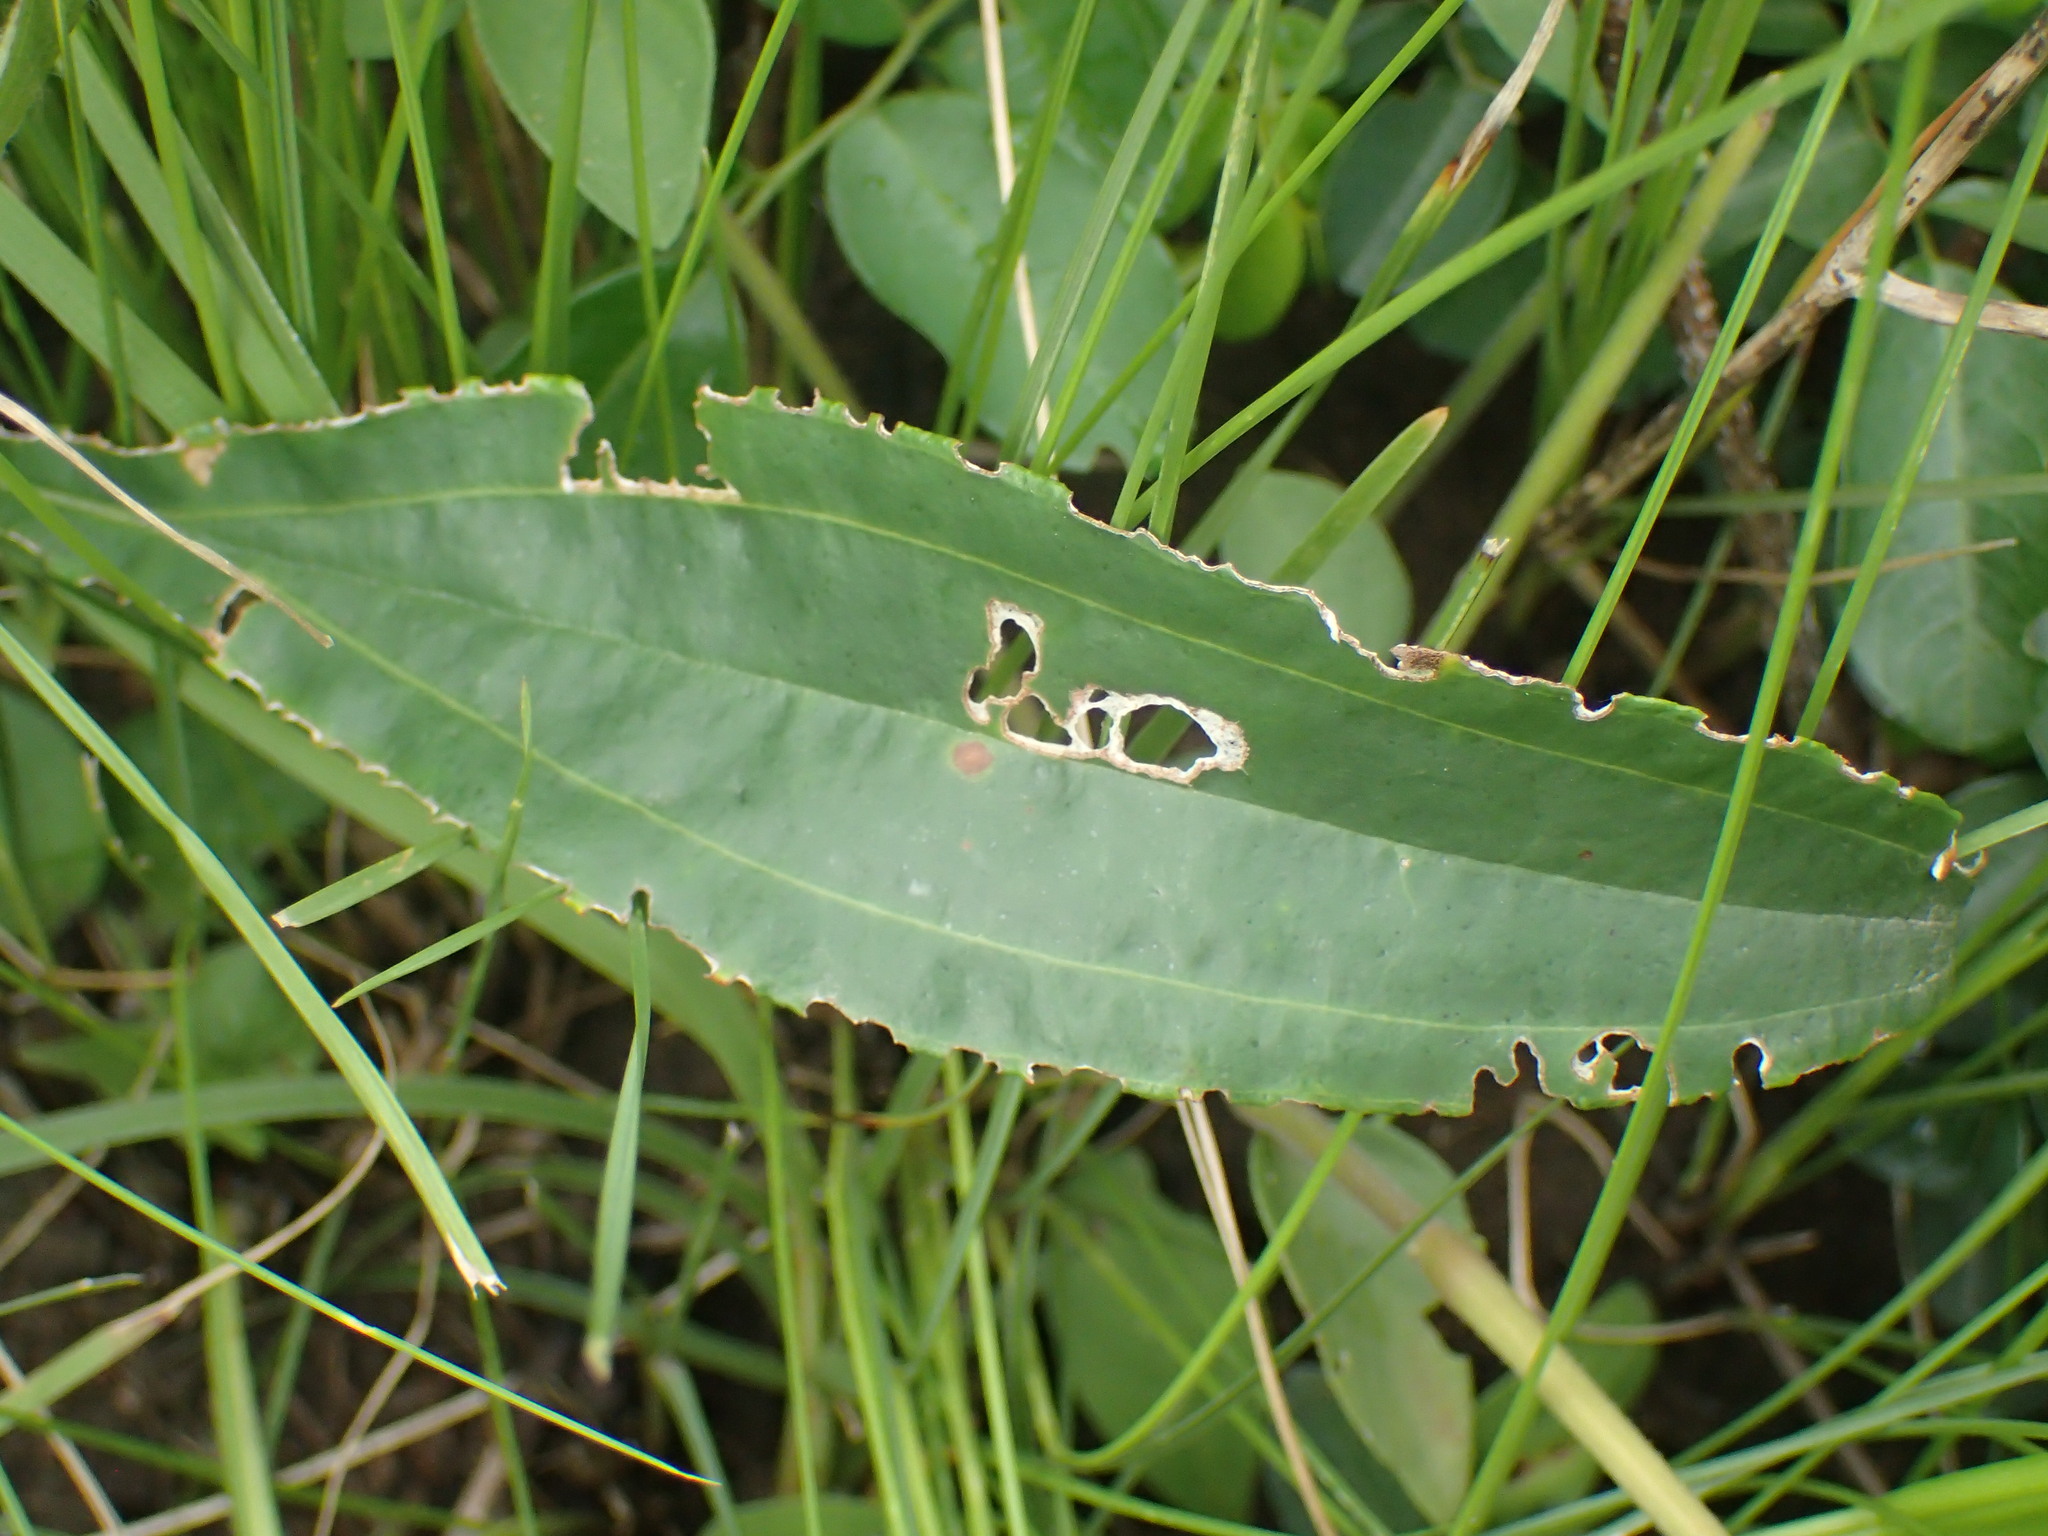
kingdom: Plantae
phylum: Tracheophyta
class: Magnoliopsida
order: Asterales
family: Asteraceae
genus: Helichrysum
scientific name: Helichrysum nudifolium
